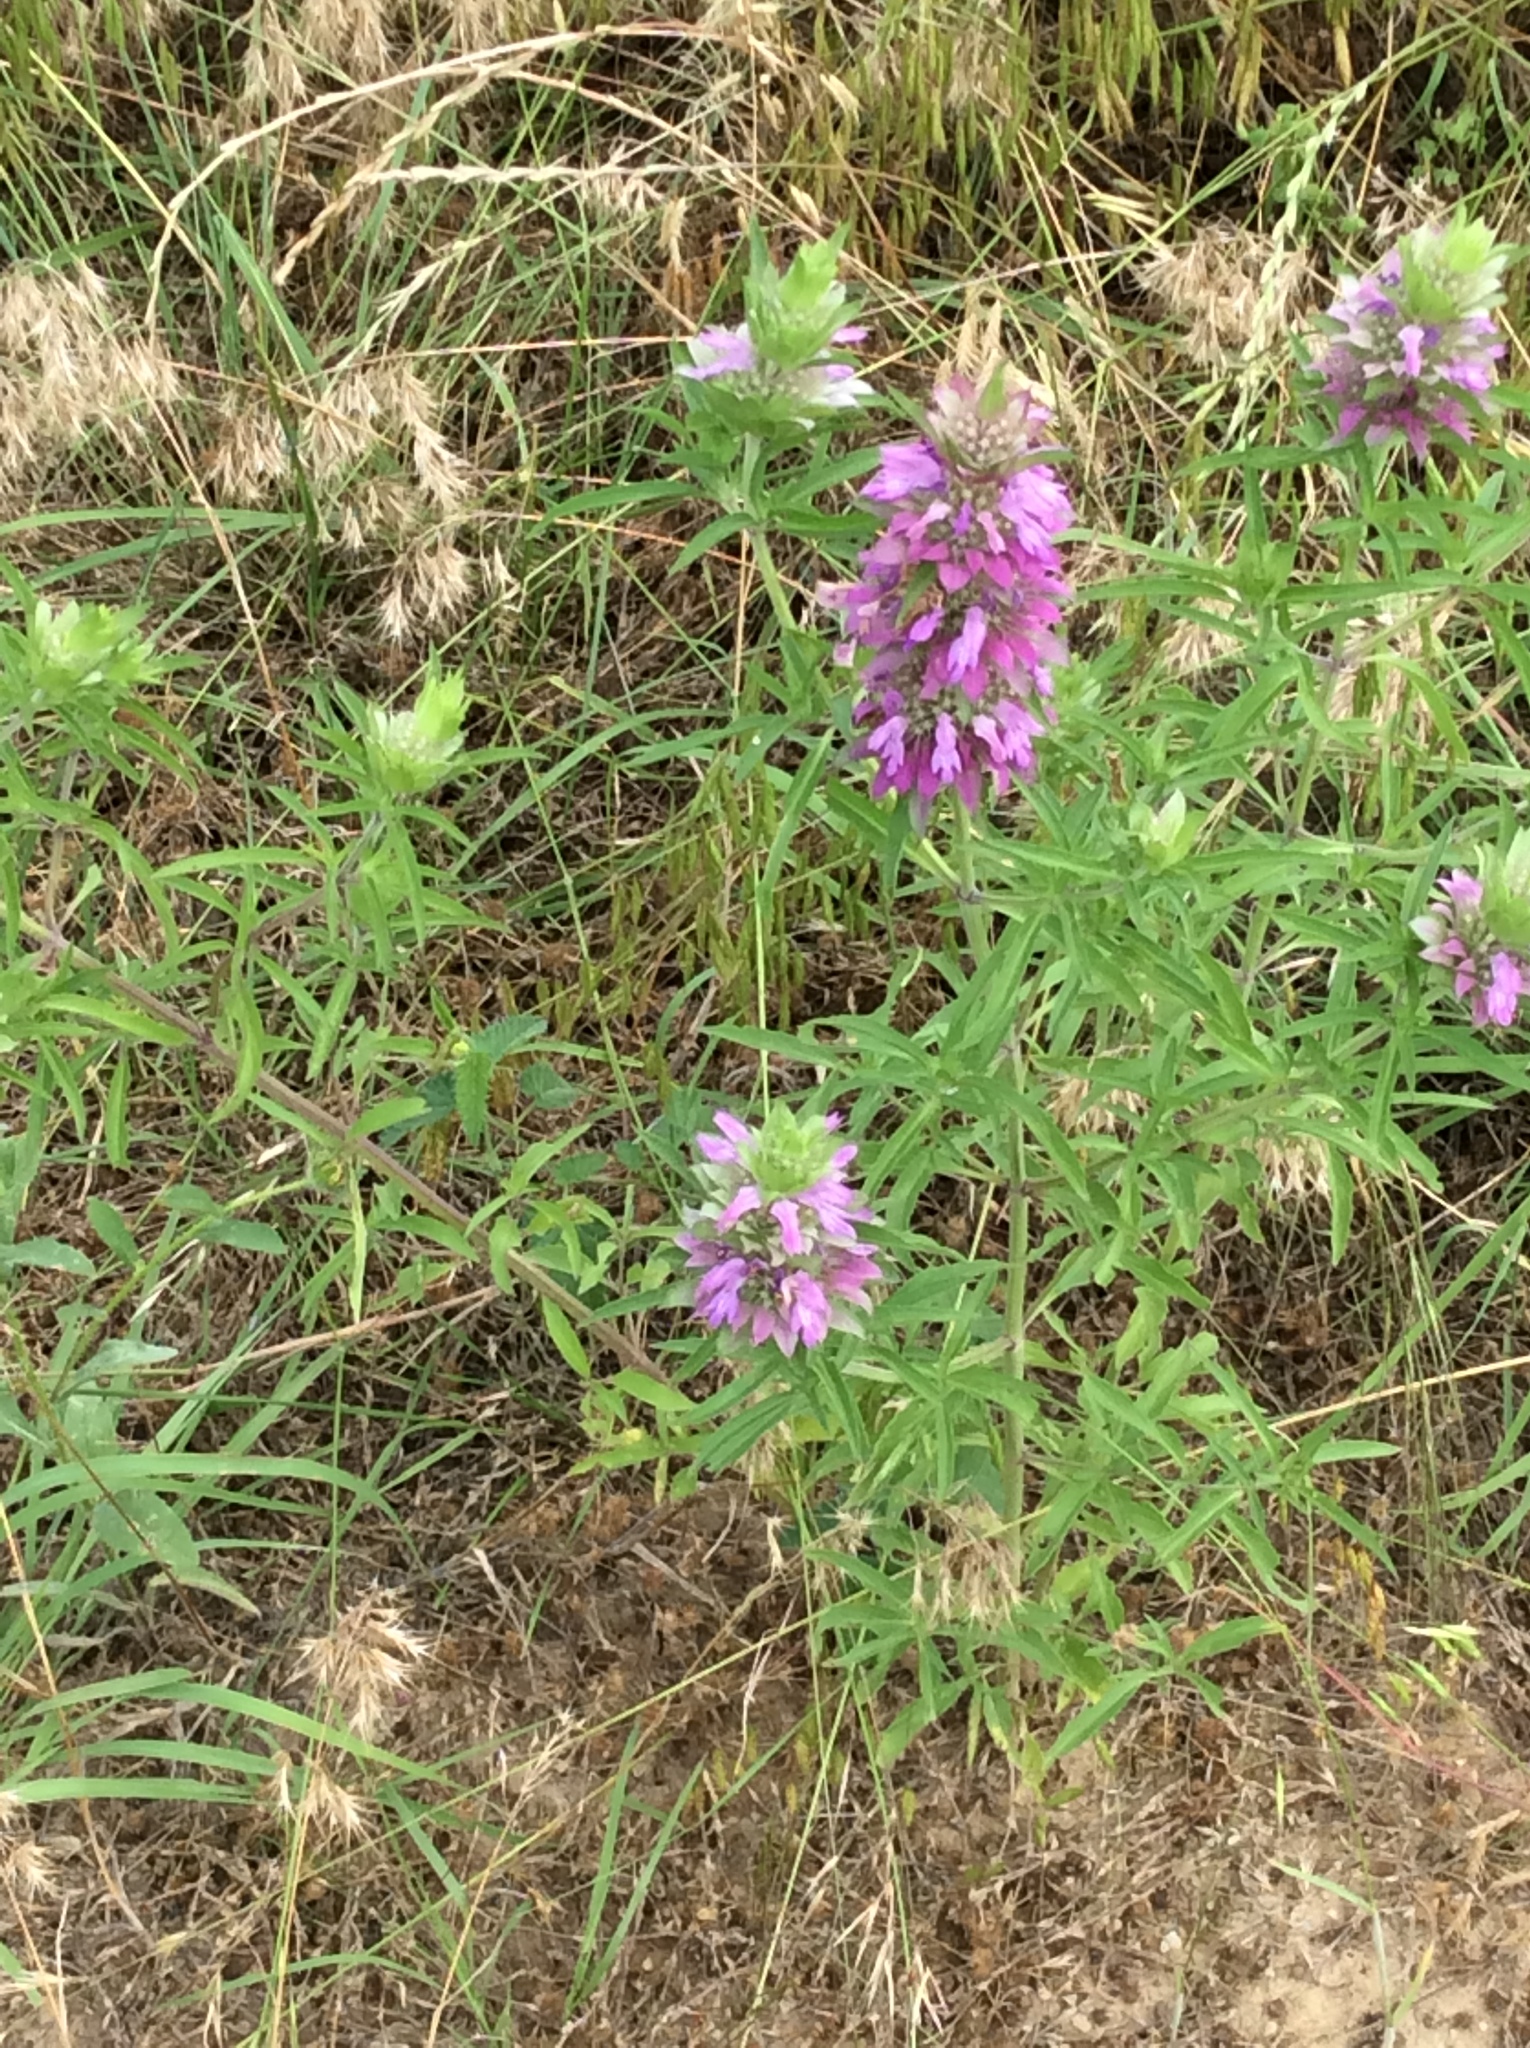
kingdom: Plantae
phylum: Tracheophyta
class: Magnoliopsida
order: Lamiales
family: Lamiaceae
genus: Monarda
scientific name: Monarda citriodora
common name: Lemon beebalm
